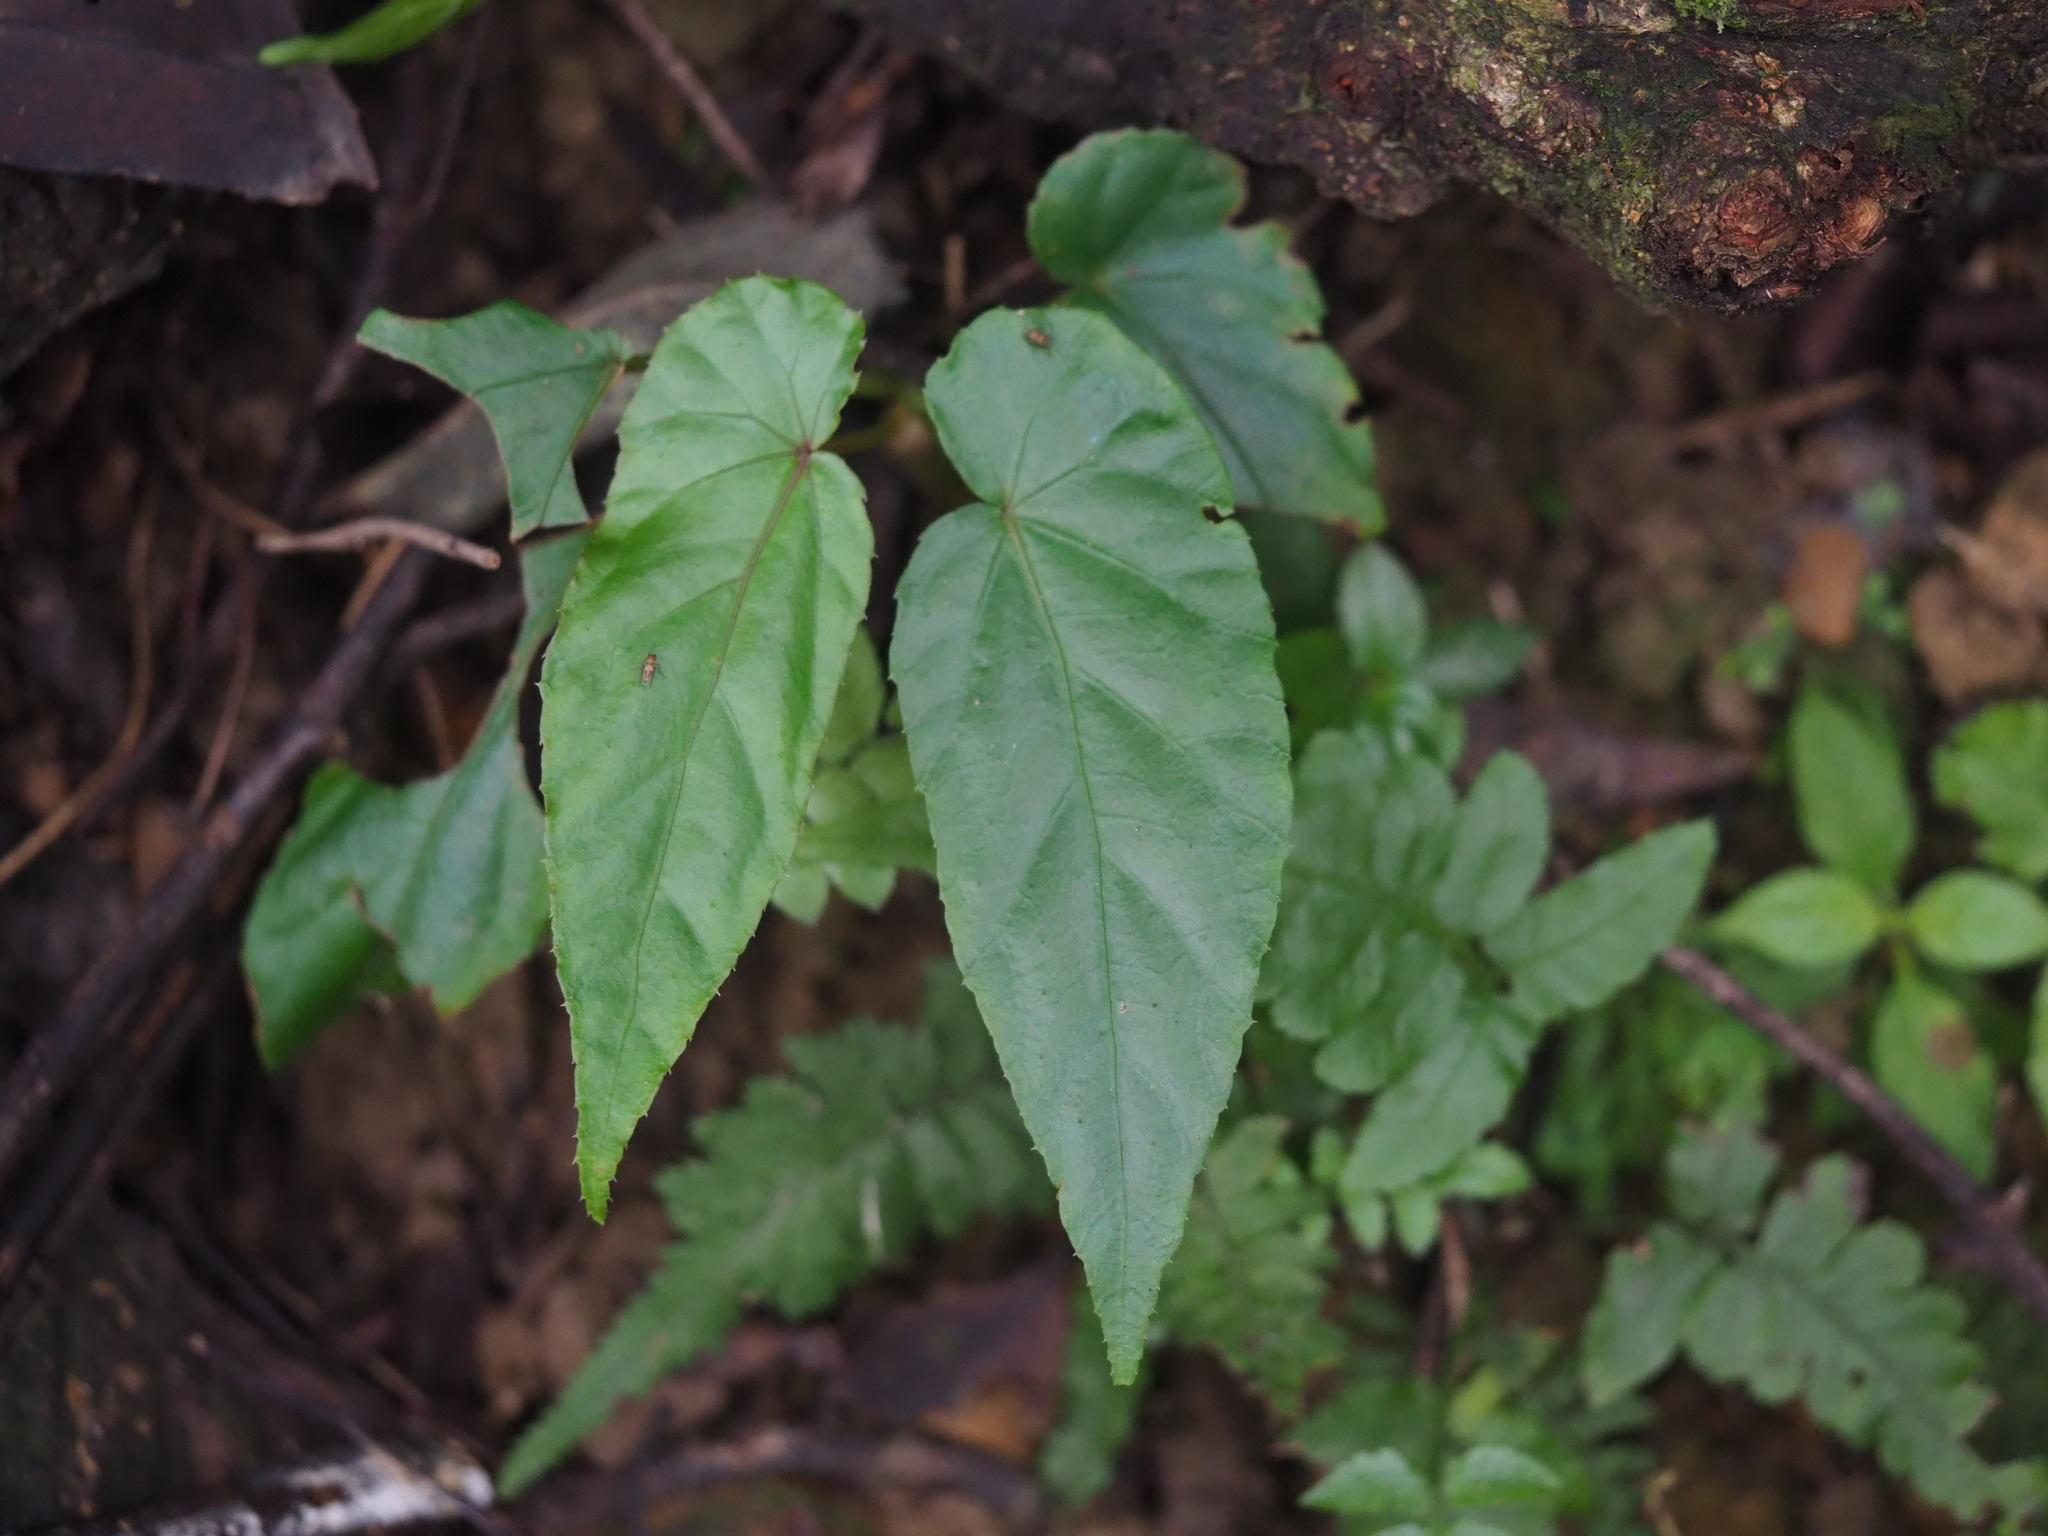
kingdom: Plantae
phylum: Tracheophyta
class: Magnoliopsida
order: Cucurbitales
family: Begoniaceae
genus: Begonia
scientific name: Begonia longifolia
